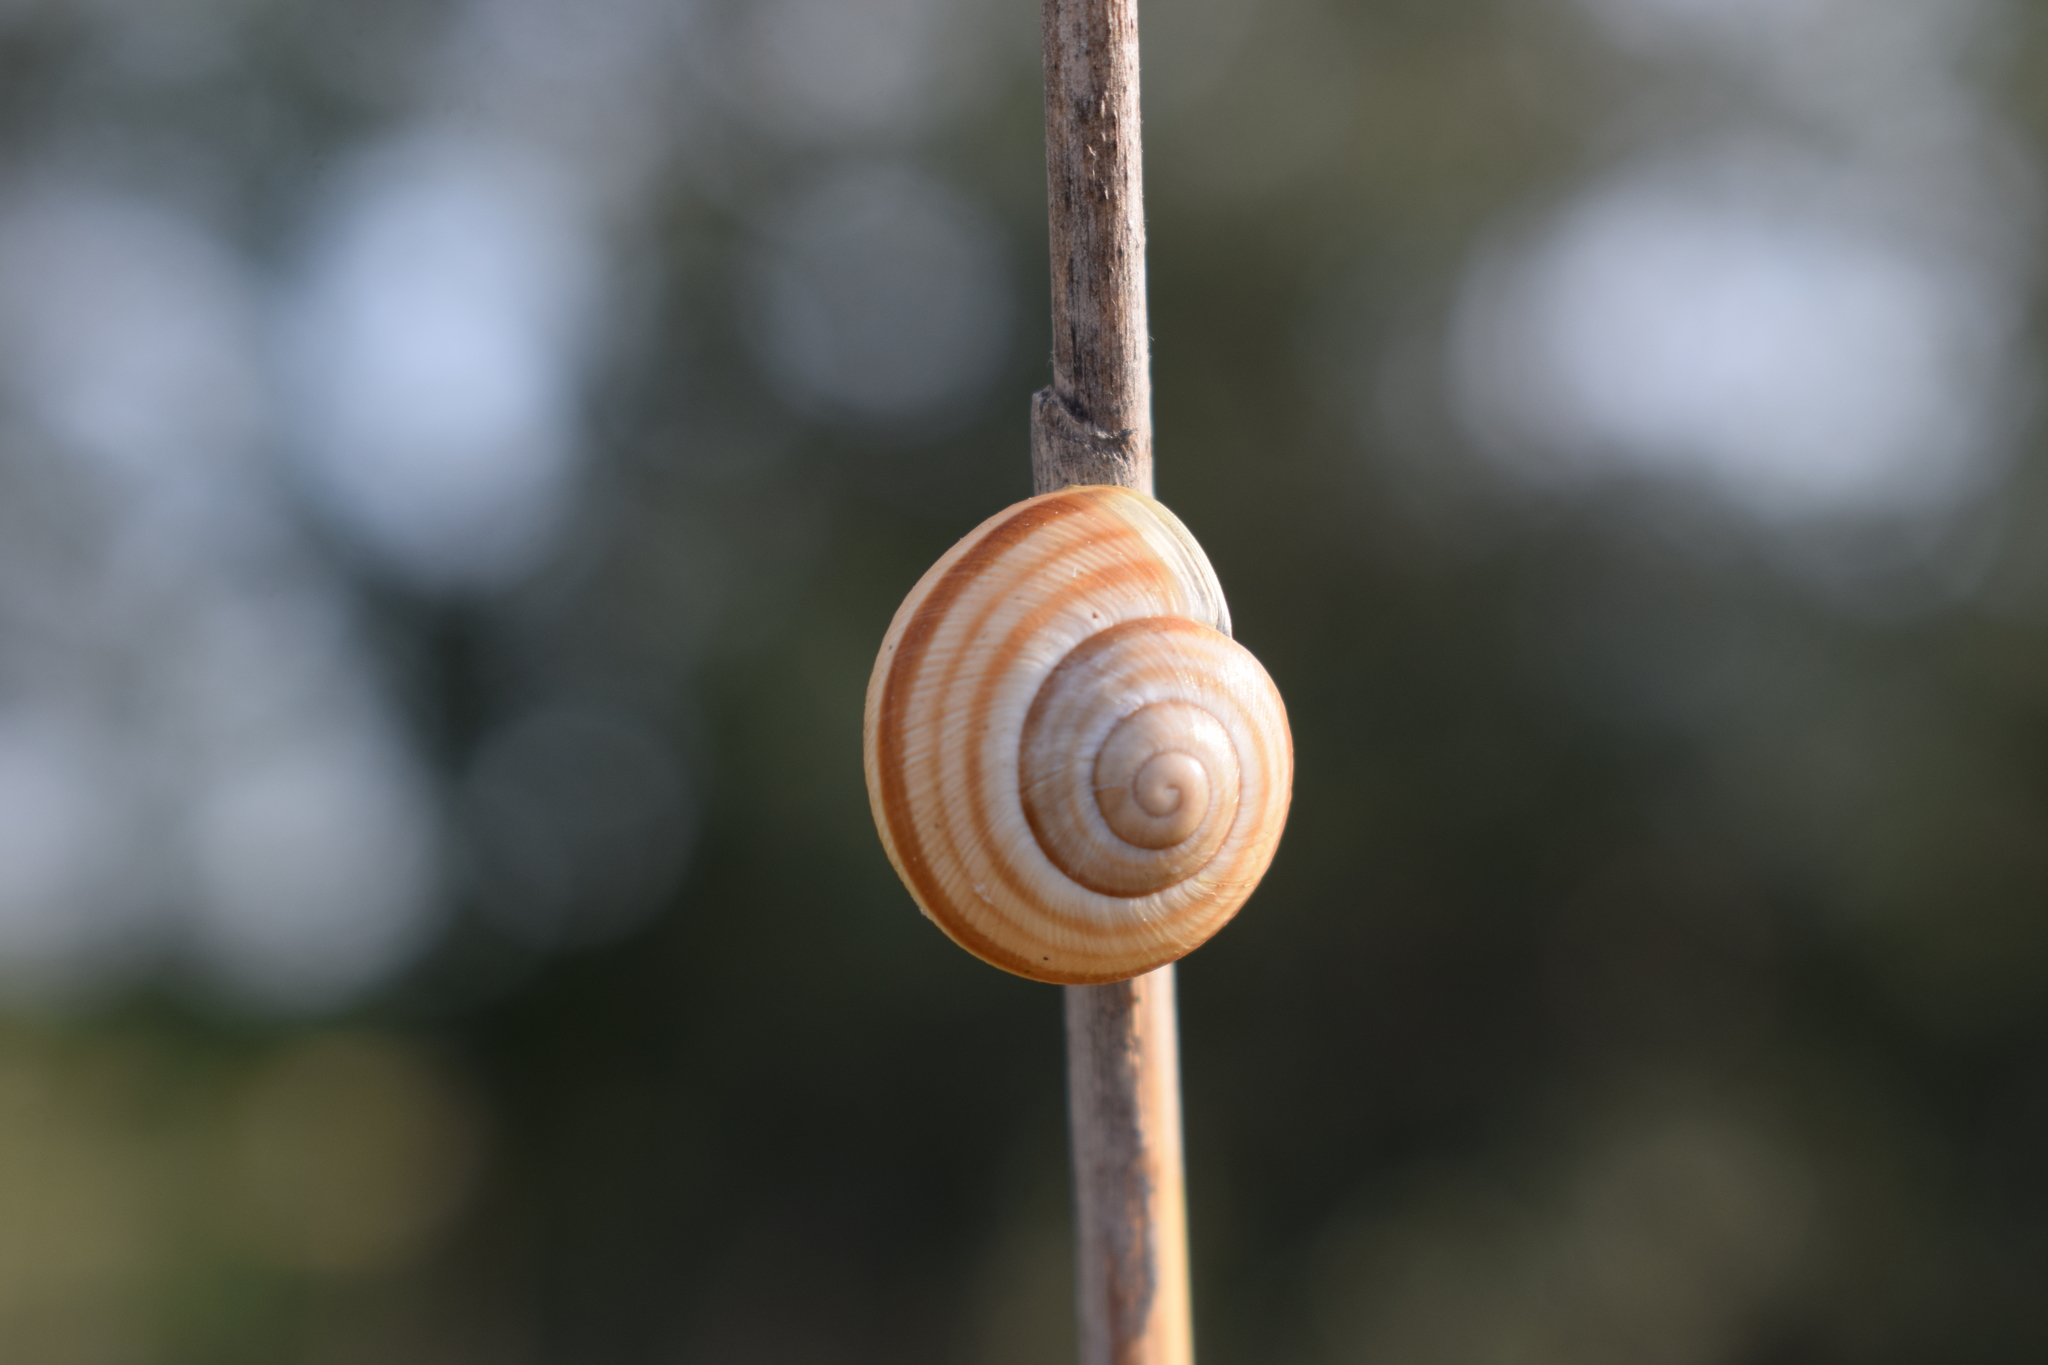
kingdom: Animalia
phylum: Mollusca
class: Gastropoda
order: Stylommatophora
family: Helicidae
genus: Caucasotachea
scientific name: Caucasotachea vindobonensis
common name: European helicid land snail
